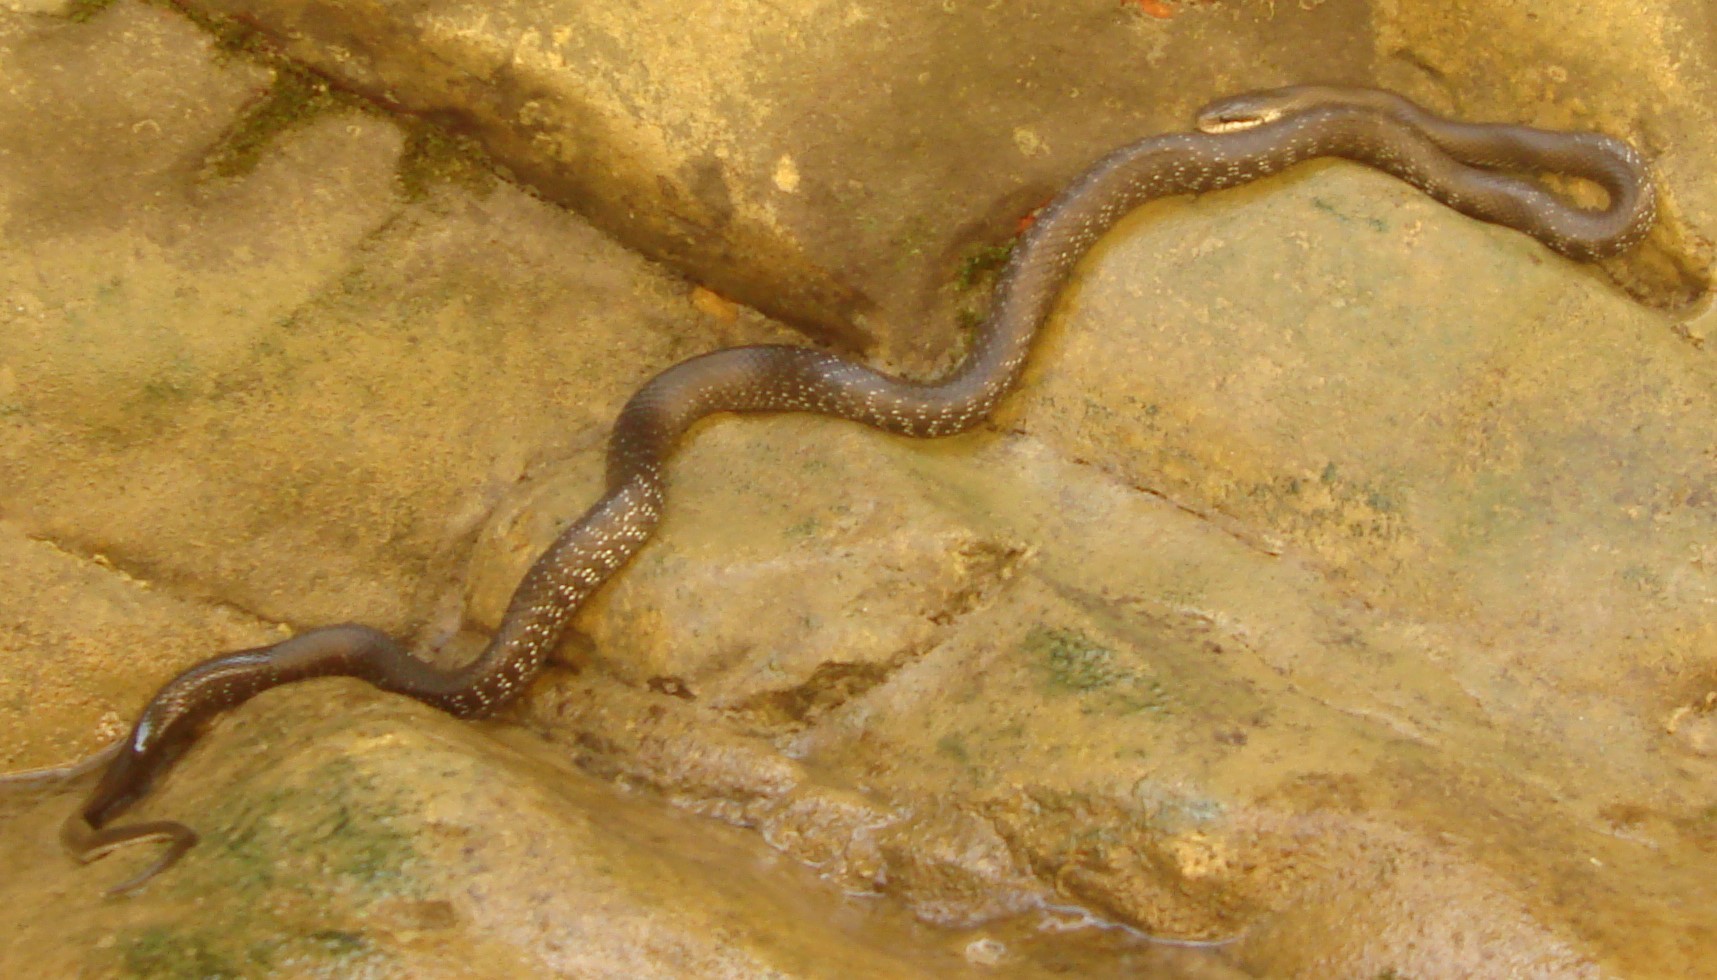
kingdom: Animalia
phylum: Chordata
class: Squamata
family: Colubridae
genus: Zamenis
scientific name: Zamenis longissimus
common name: Aesculapean snake
